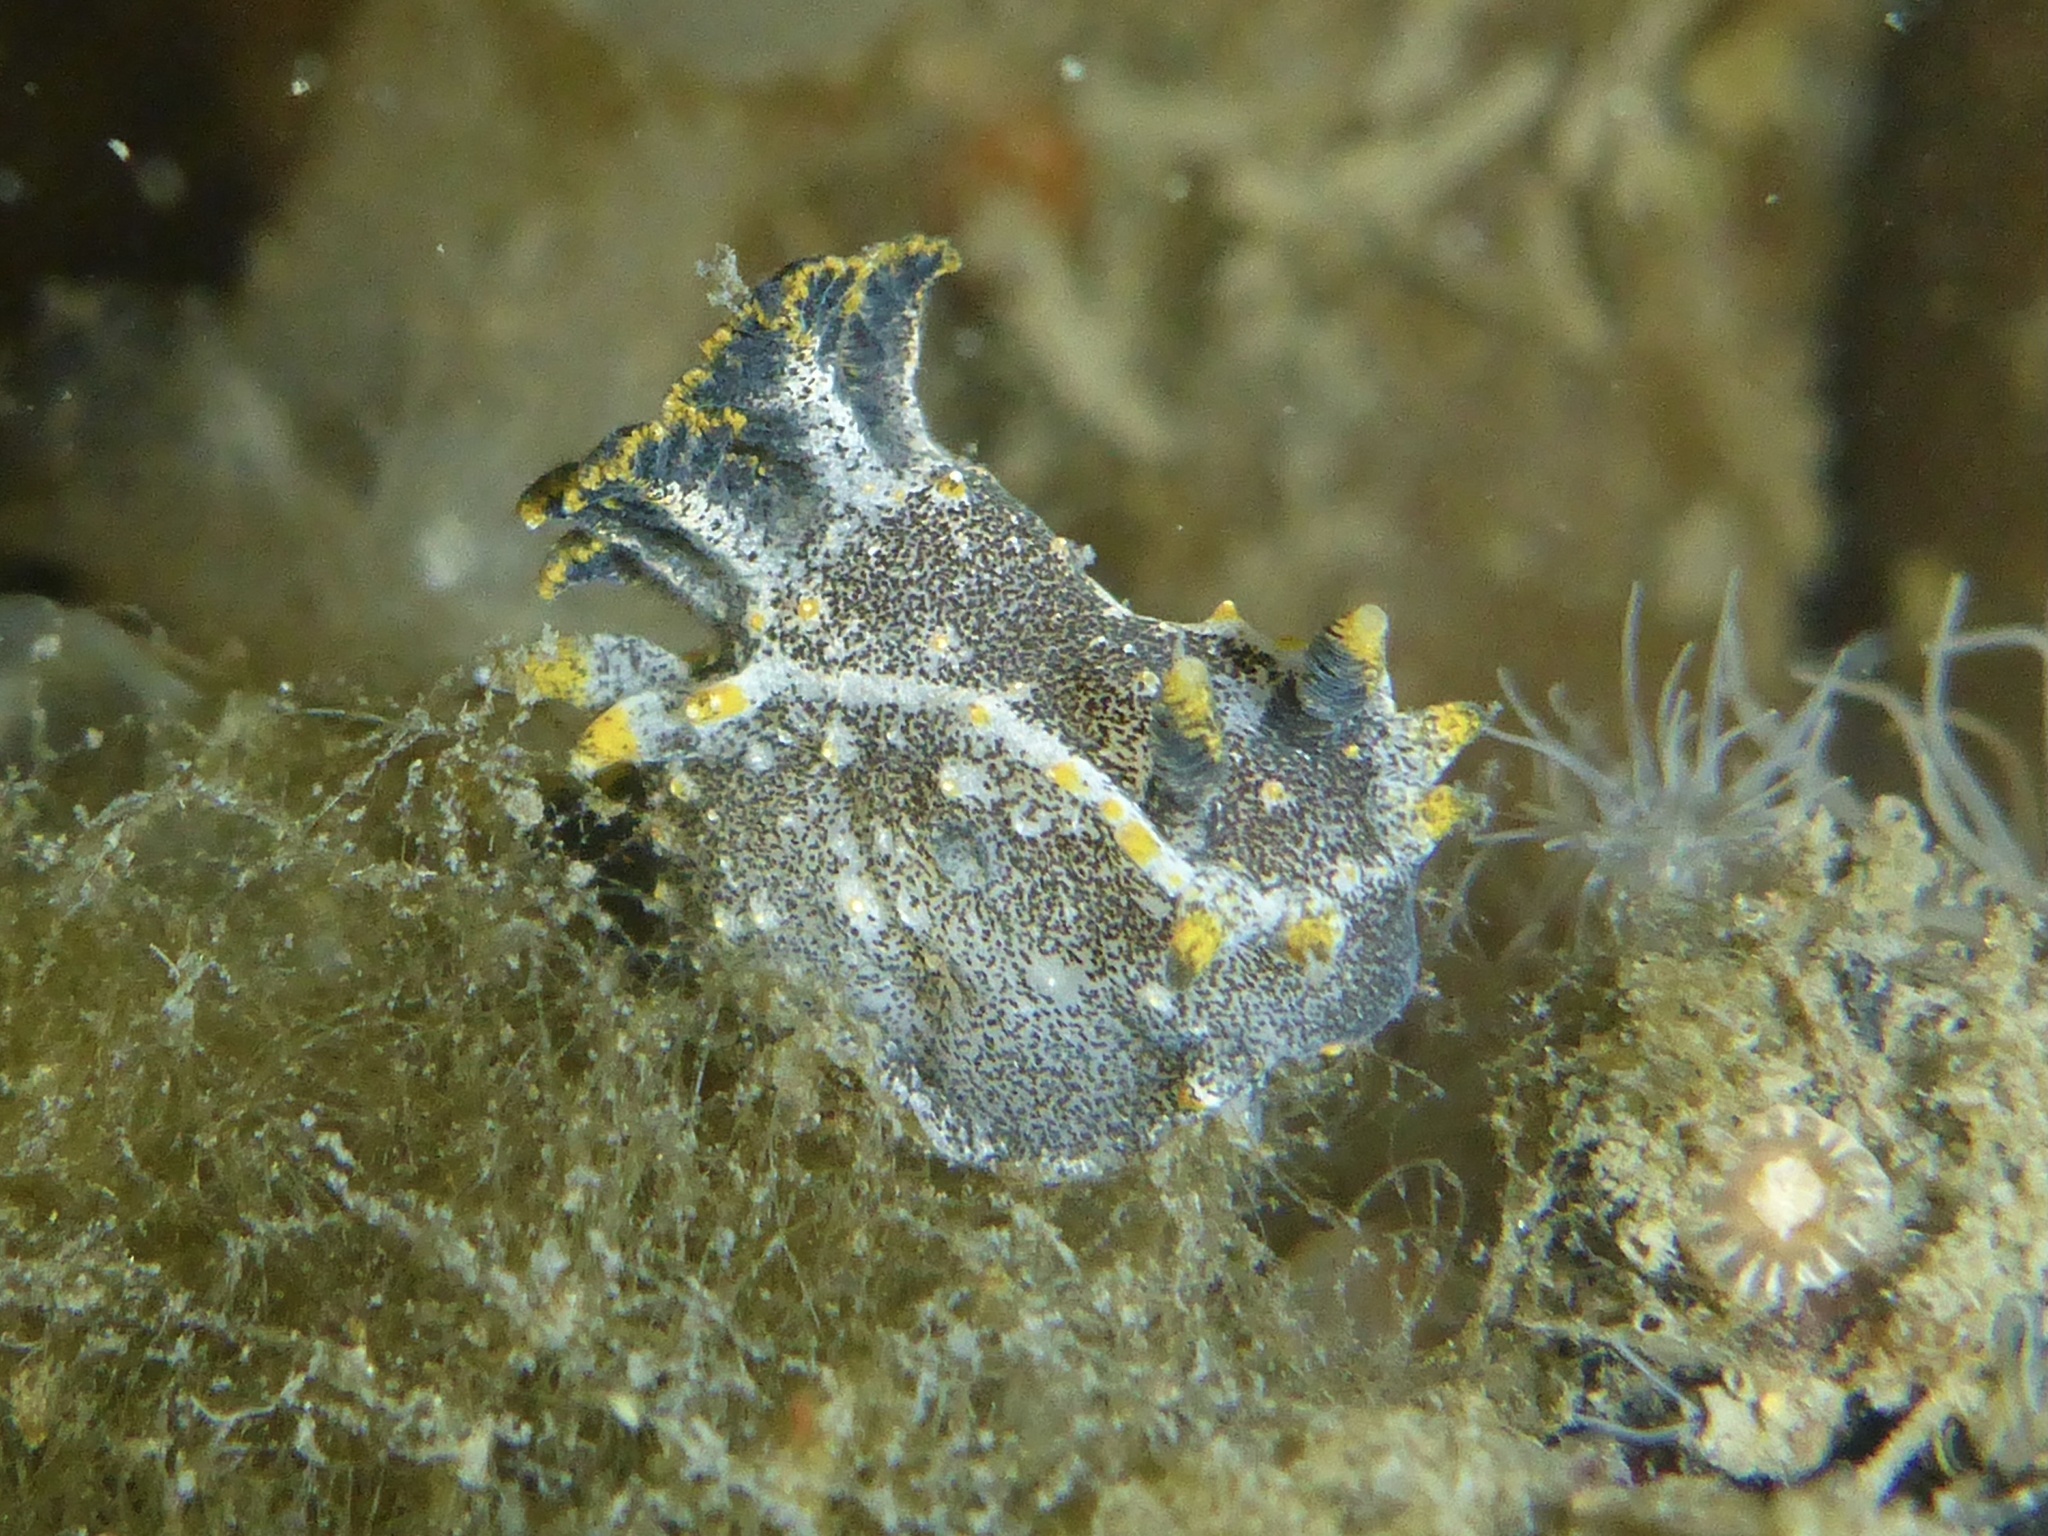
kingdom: Animalia
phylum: Mollusca
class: Gastropoda
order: Nudibranchia
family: Polyceridae
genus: Polycera
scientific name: Polycera hedgpethi
